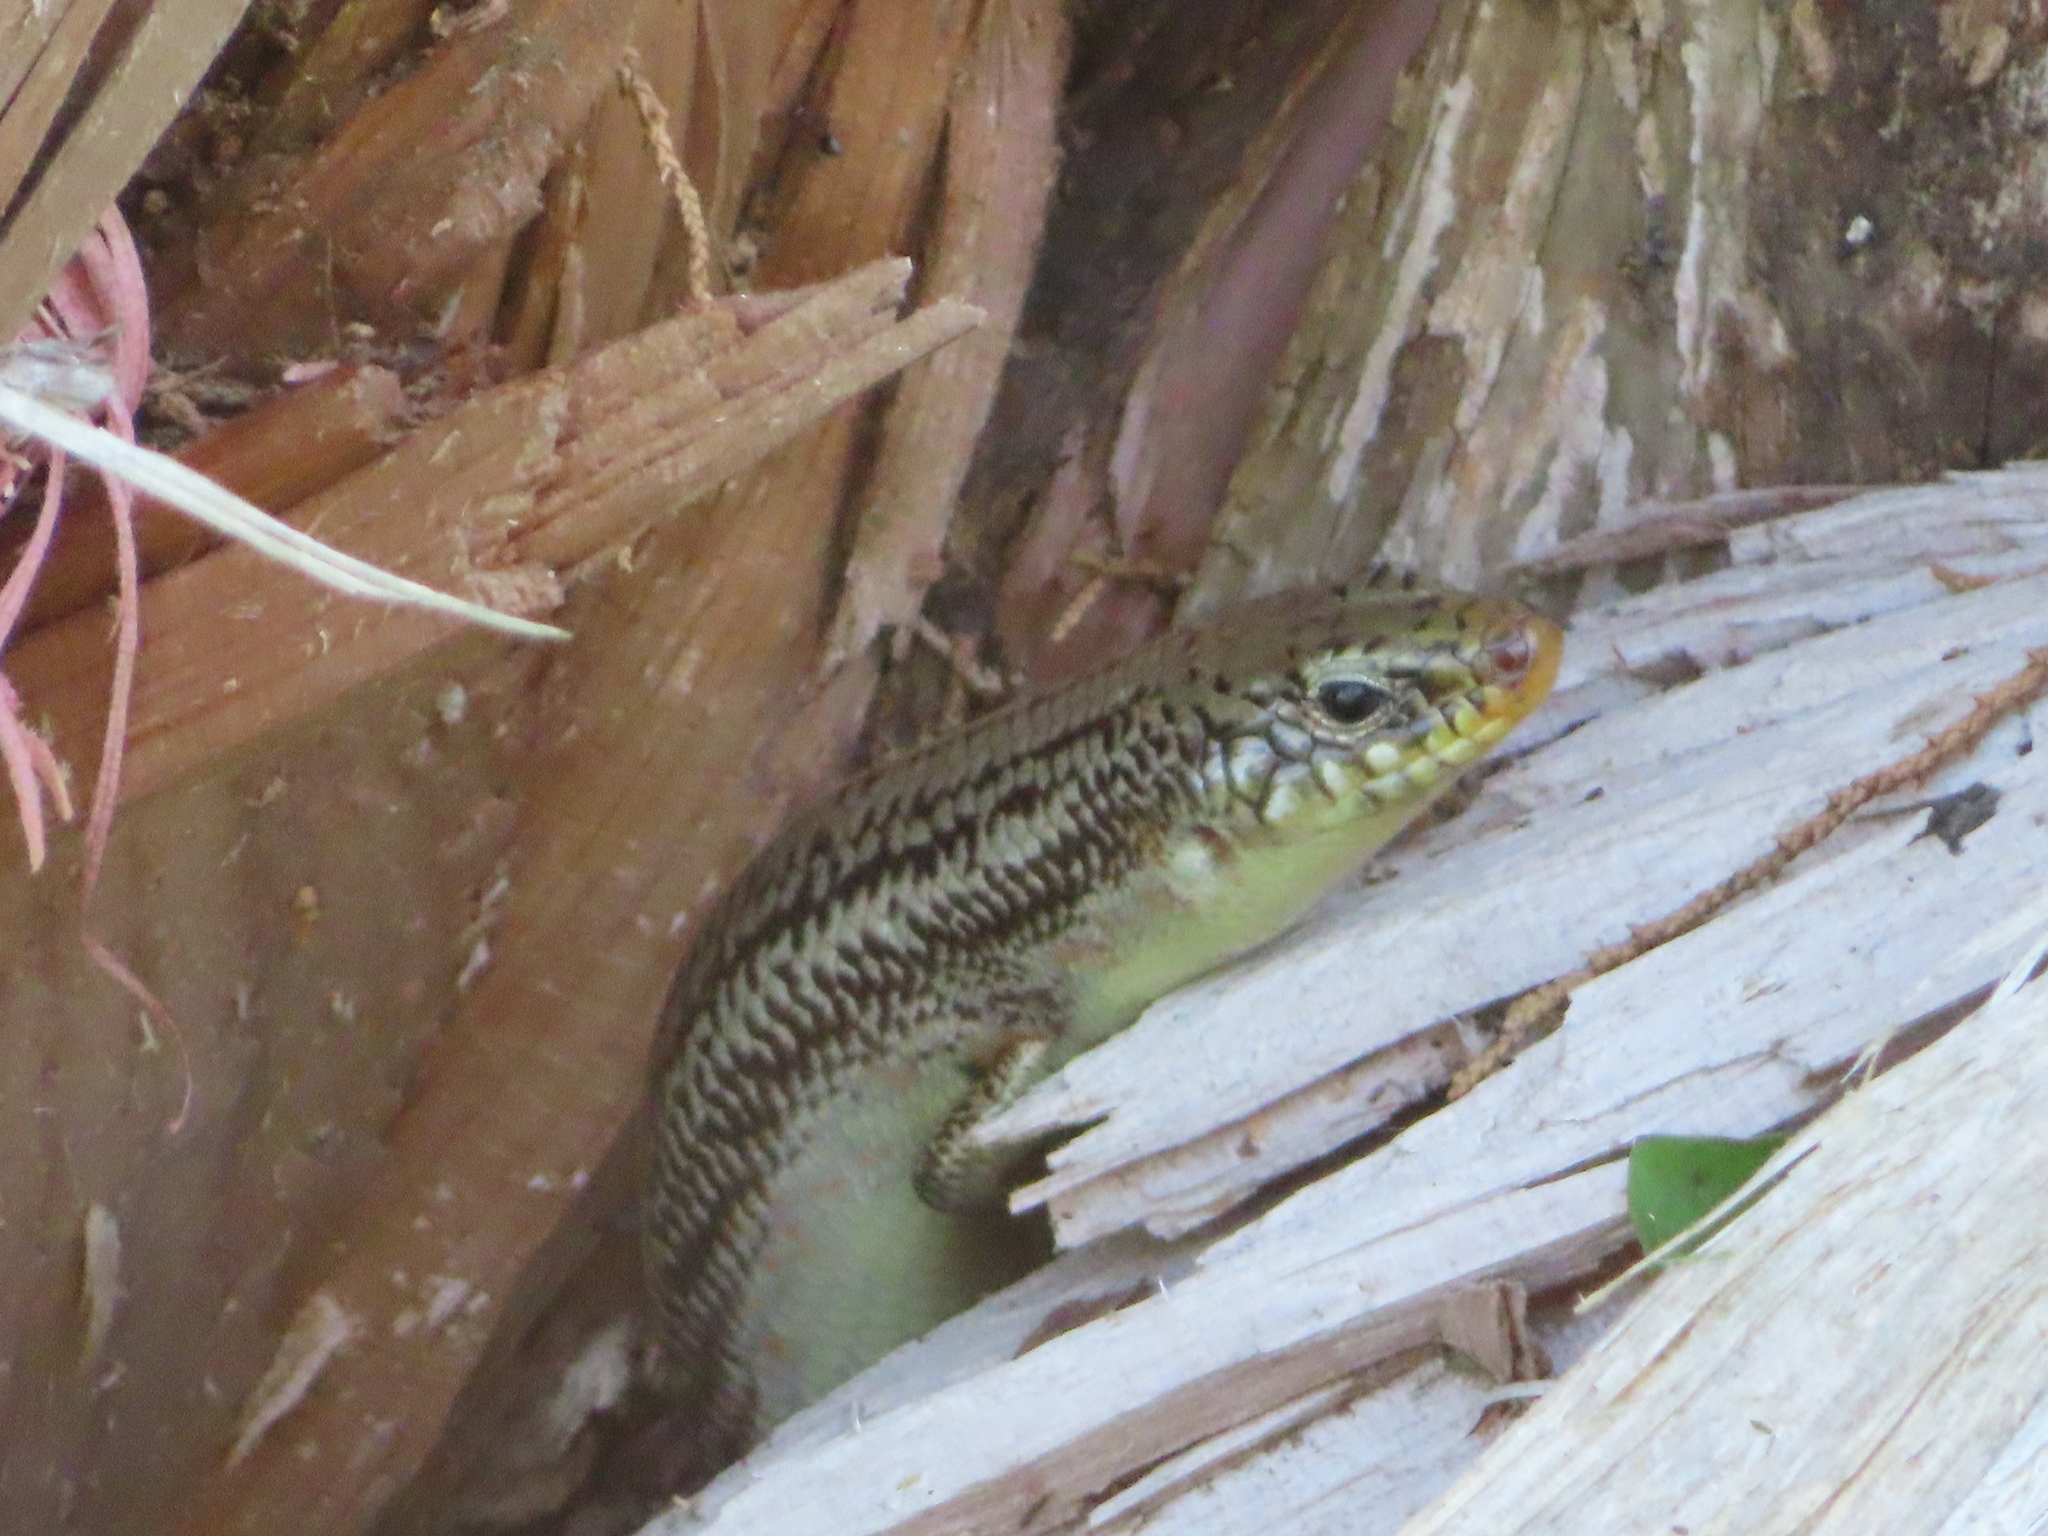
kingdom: Animalia
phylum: Chordata
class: Squamata
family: Scincidae
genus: Plestiodon
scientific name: Plestiodon obsoletus
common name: Great plains skink
